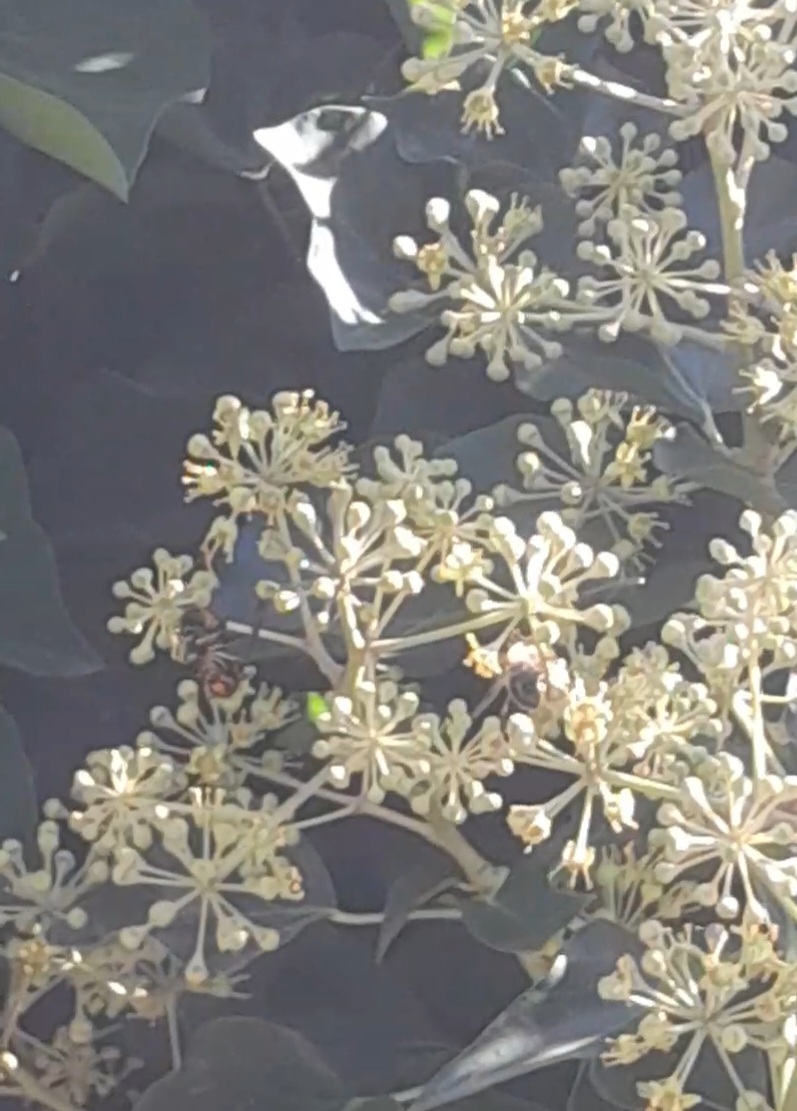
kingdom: Animalia
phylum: Arthropoda
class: Insecta
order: Hymenoptera
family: Vespidae
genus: Vespa
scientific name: Vespa velutina
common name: Asian hornet
